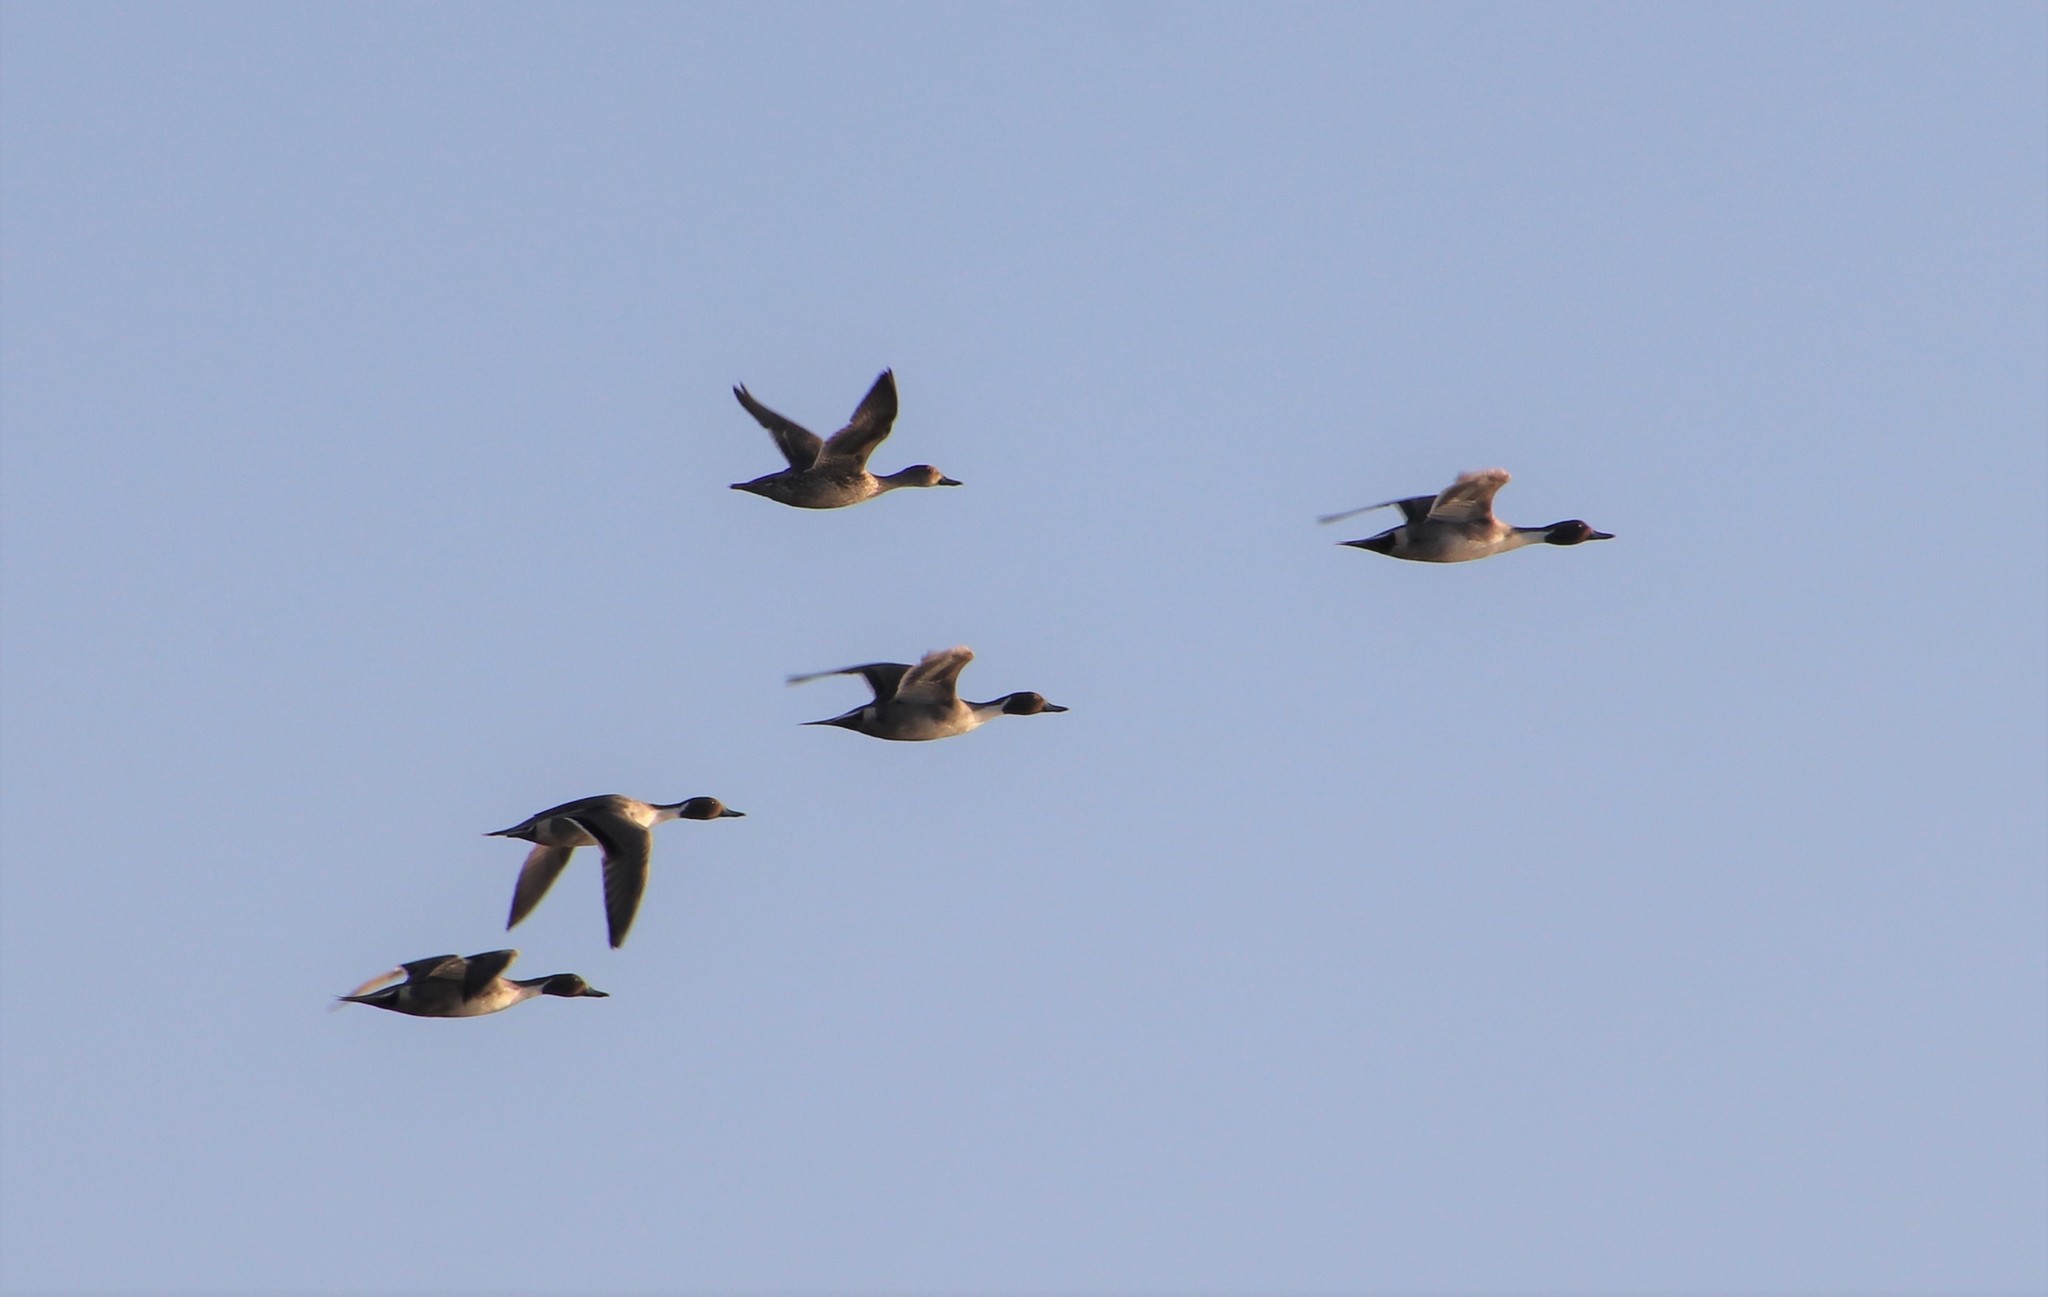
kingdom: Animalia
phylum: Chordata
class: Aves
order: Anseriformes
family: Anatidae
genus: Anas
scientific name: Anas acuta
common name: Northern pintail
